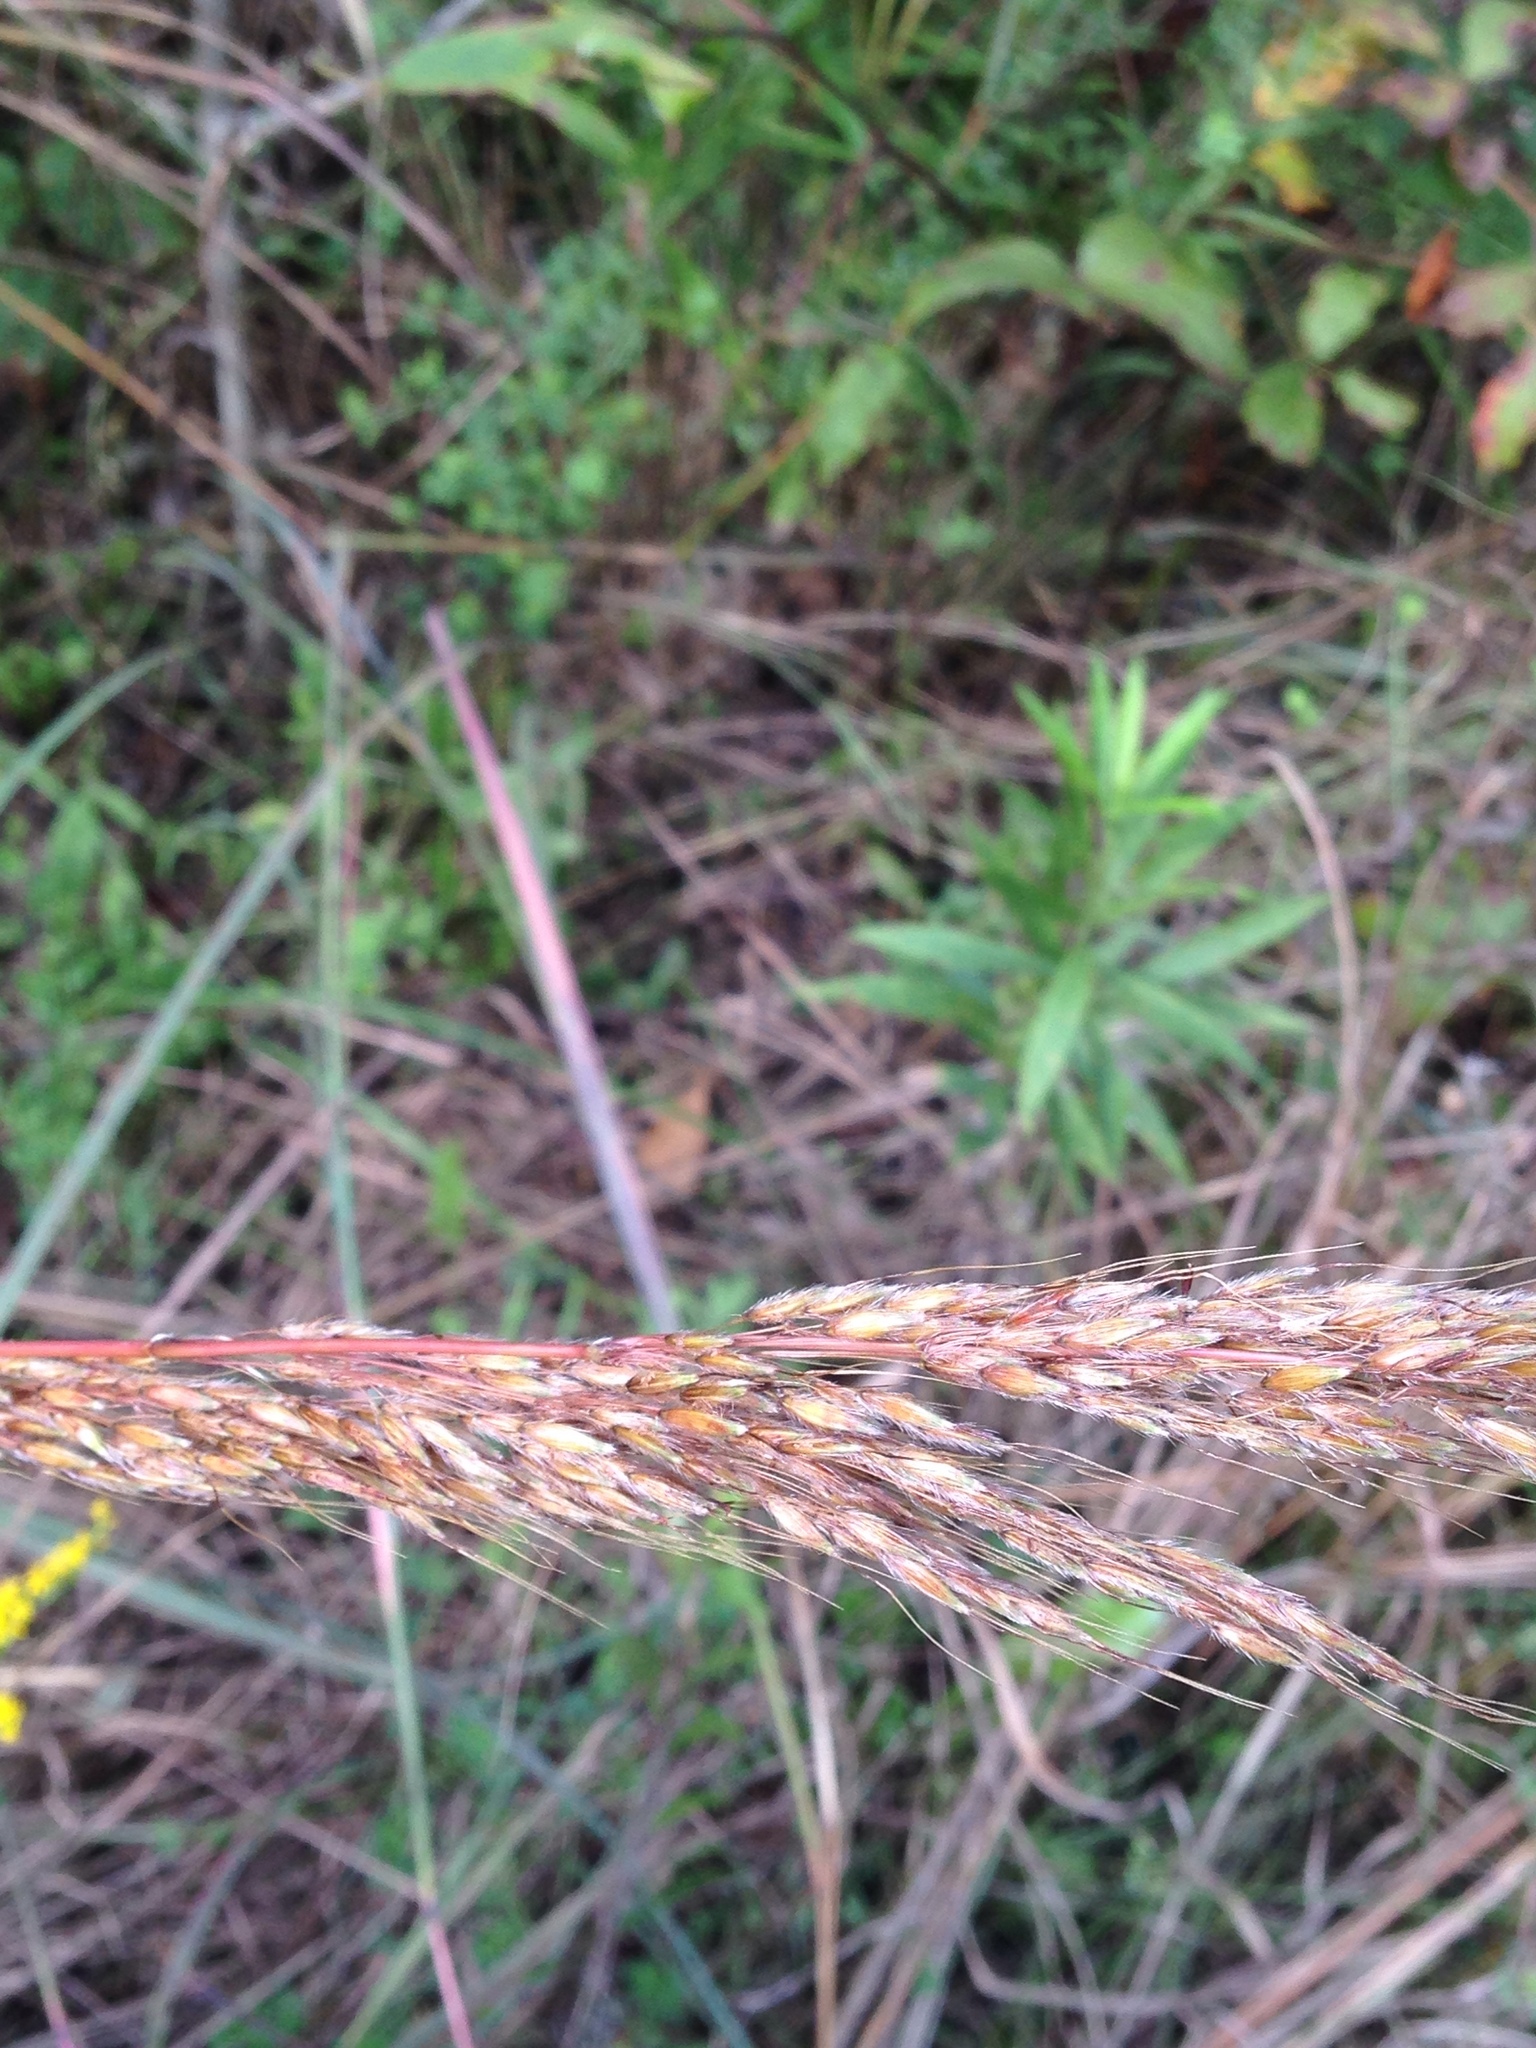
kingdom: Plantae
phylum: Tracheophyta
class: Liliopsida
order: Poales
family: Poaceae
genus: Sorghastrum
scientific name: Sorghastrum nutans
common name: Indian grass
